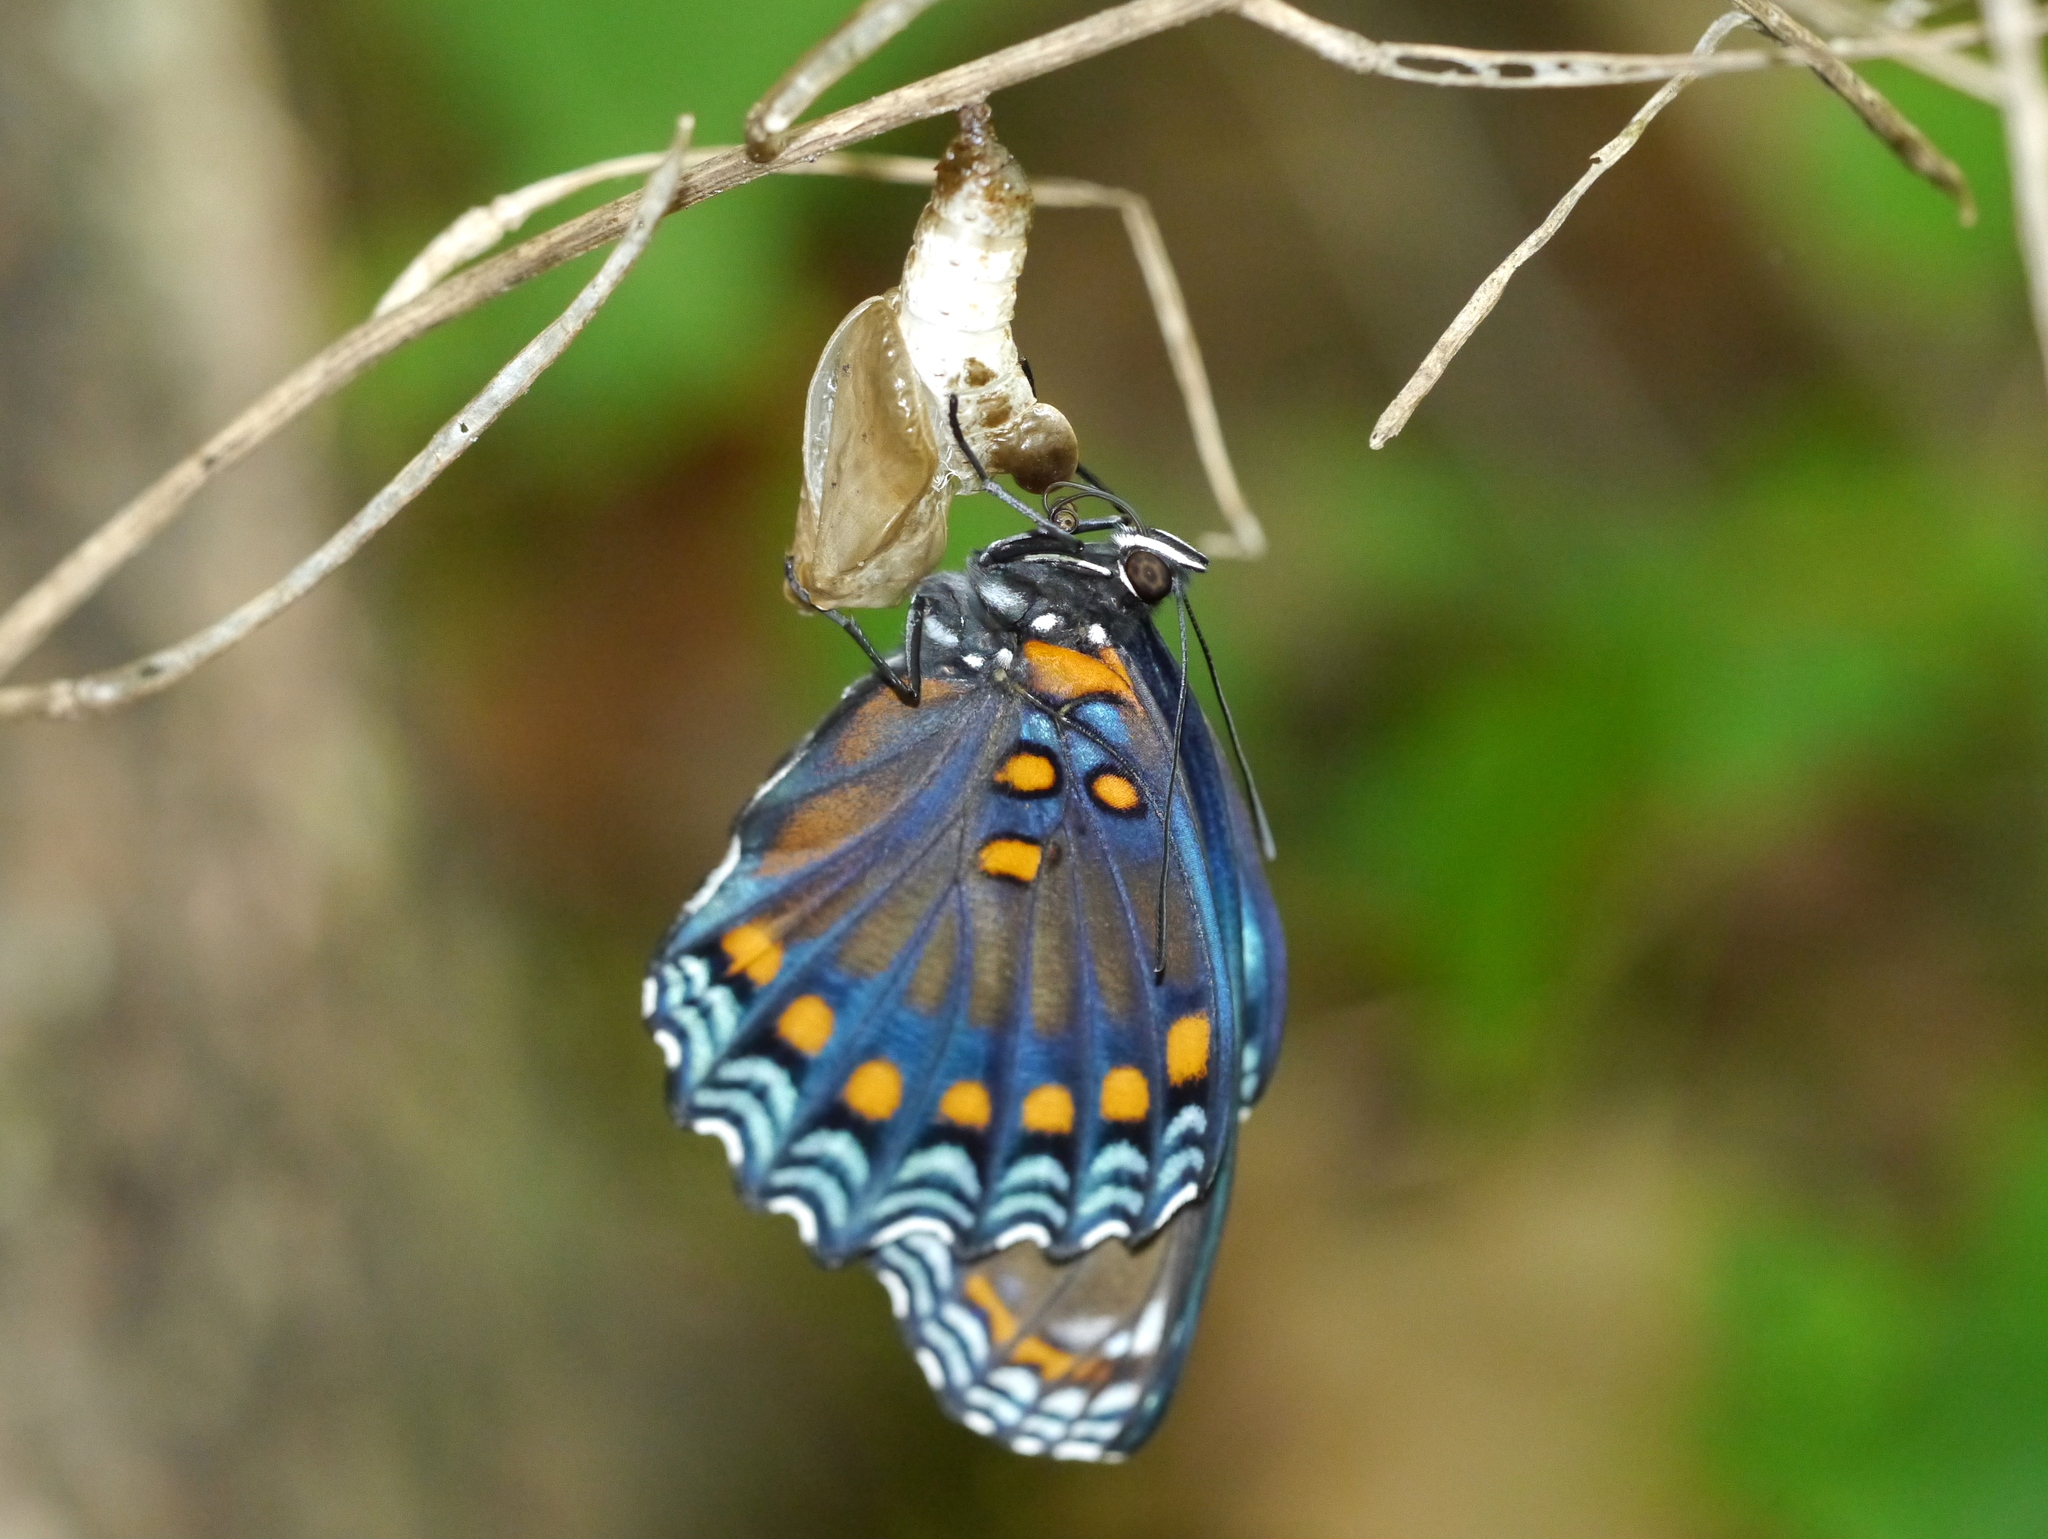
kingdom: Animalia
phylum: Arthropoda
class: Insecta
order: Lepidoptera
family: Nymphalidae
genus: Limenitis
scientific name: Limenitis arthemis
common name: Red-spotted admiral
